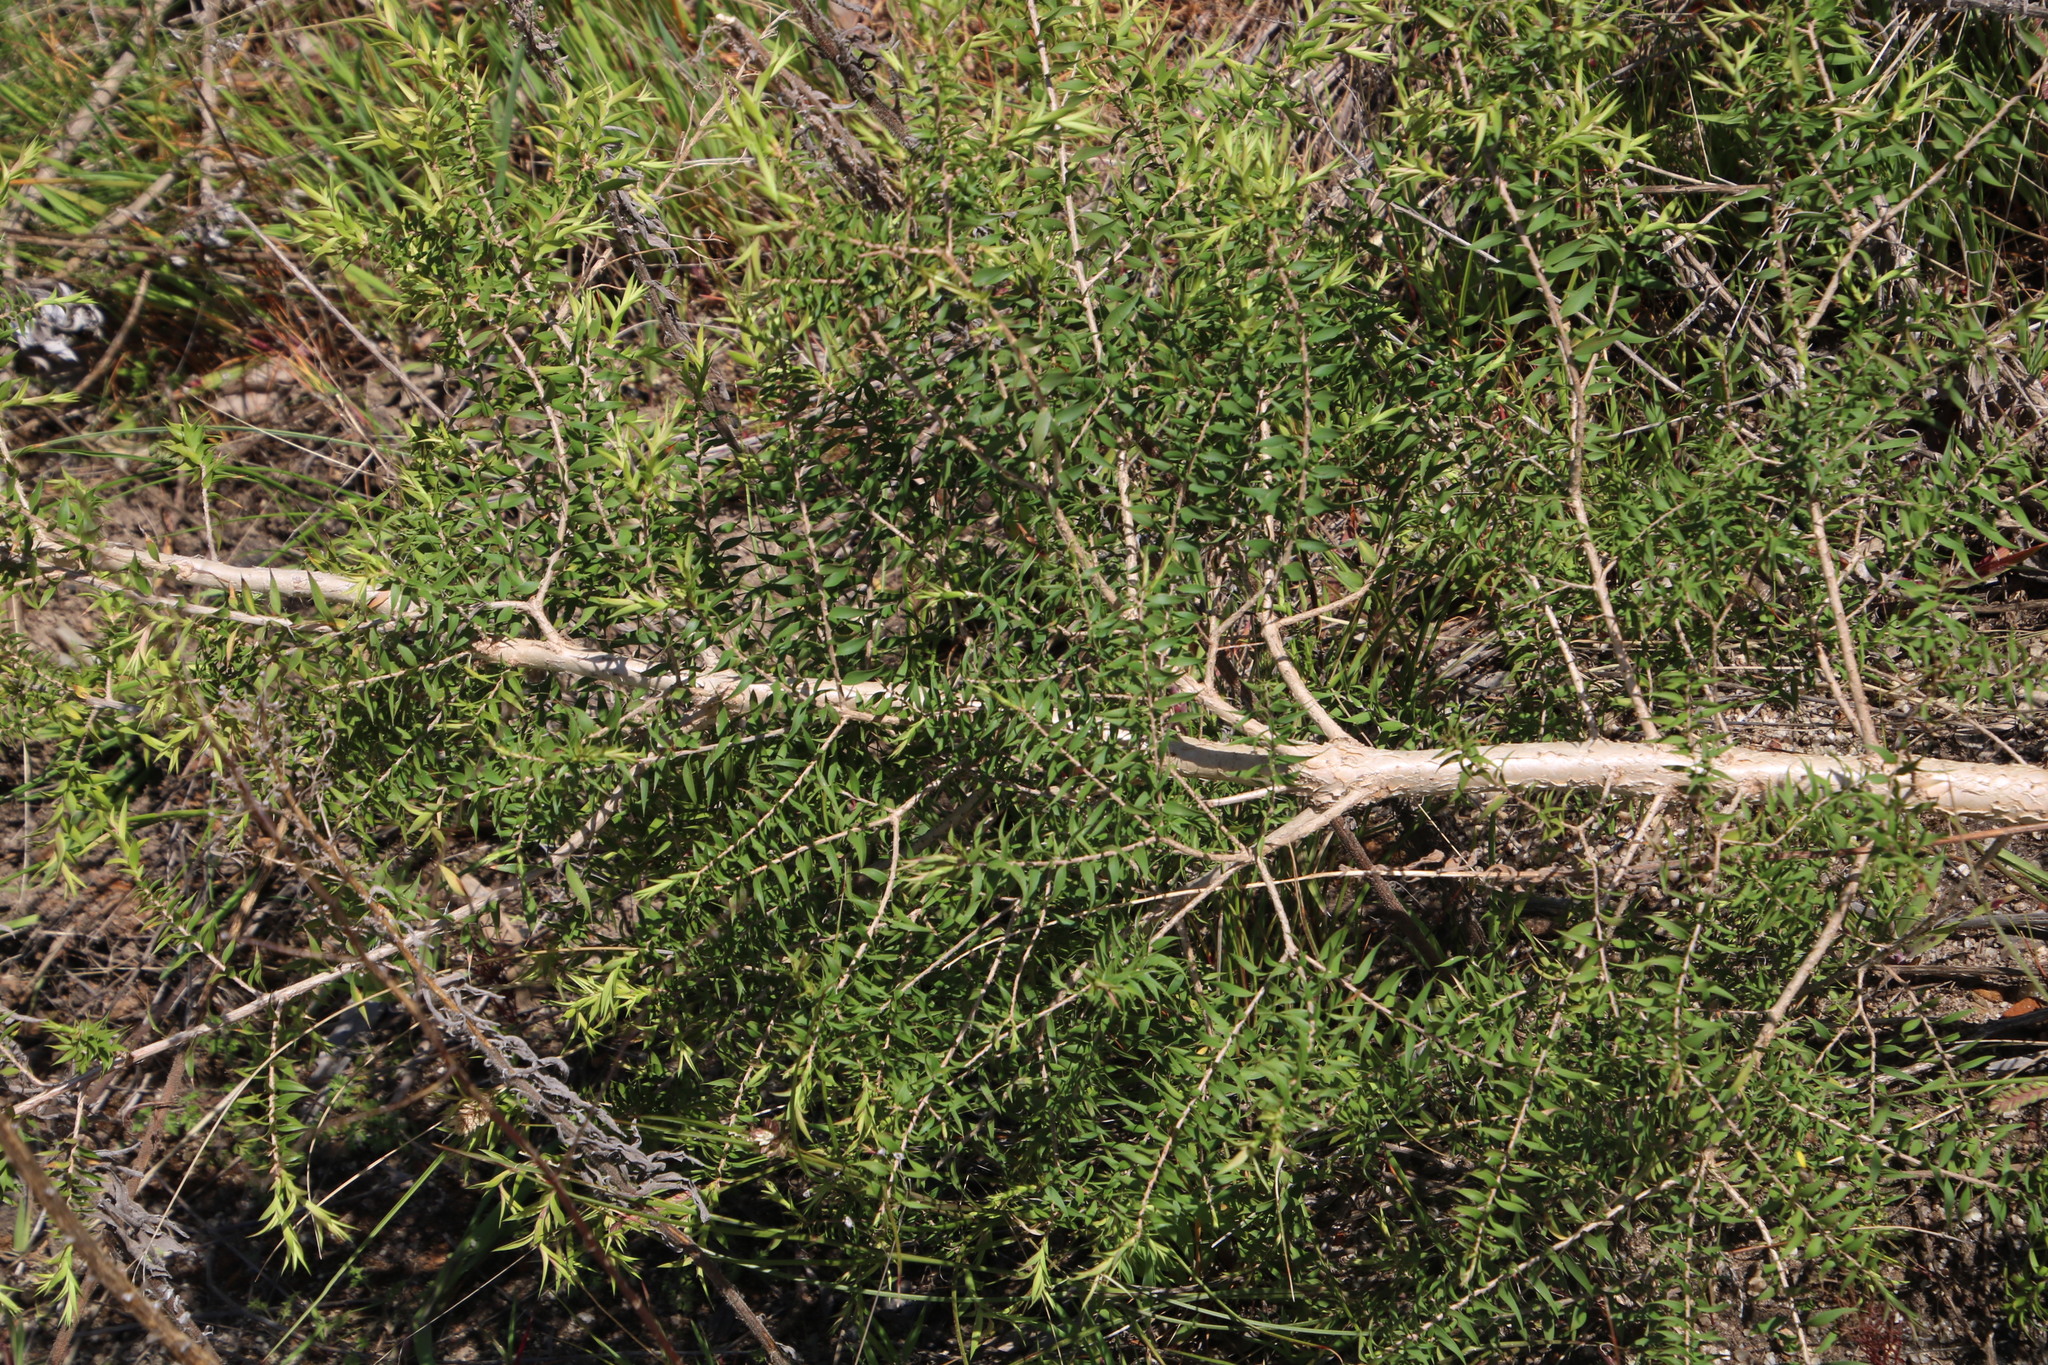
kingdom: Plantae
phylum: Tracheophyta
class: Magnoliopsida
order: Myrtales
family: Myrtaceae
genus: Melaleuca
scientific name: Melaleuca styphelioides
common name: Prickly paperbark
